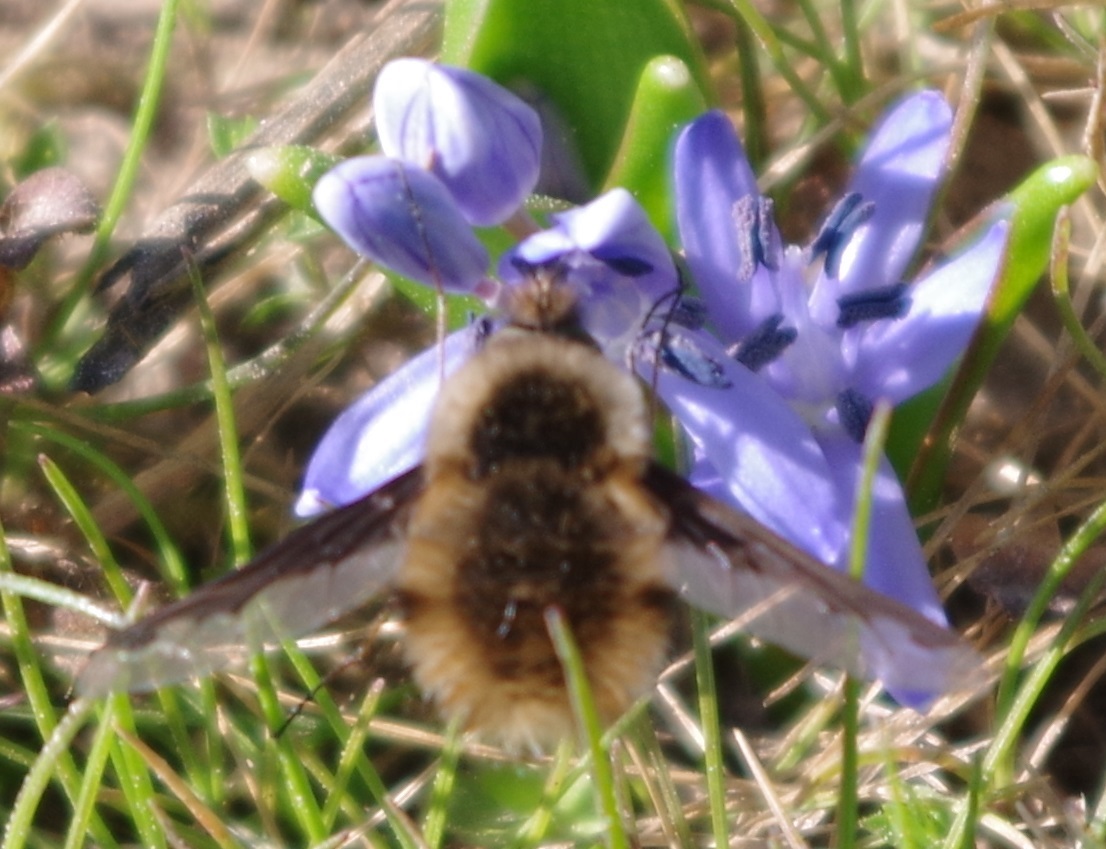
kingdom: Animalia
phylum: Arthropoda
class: Insecta
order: Diptera
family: Bombyliidae
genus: Bombylius
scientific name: Bombylius major
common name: Bee fly
